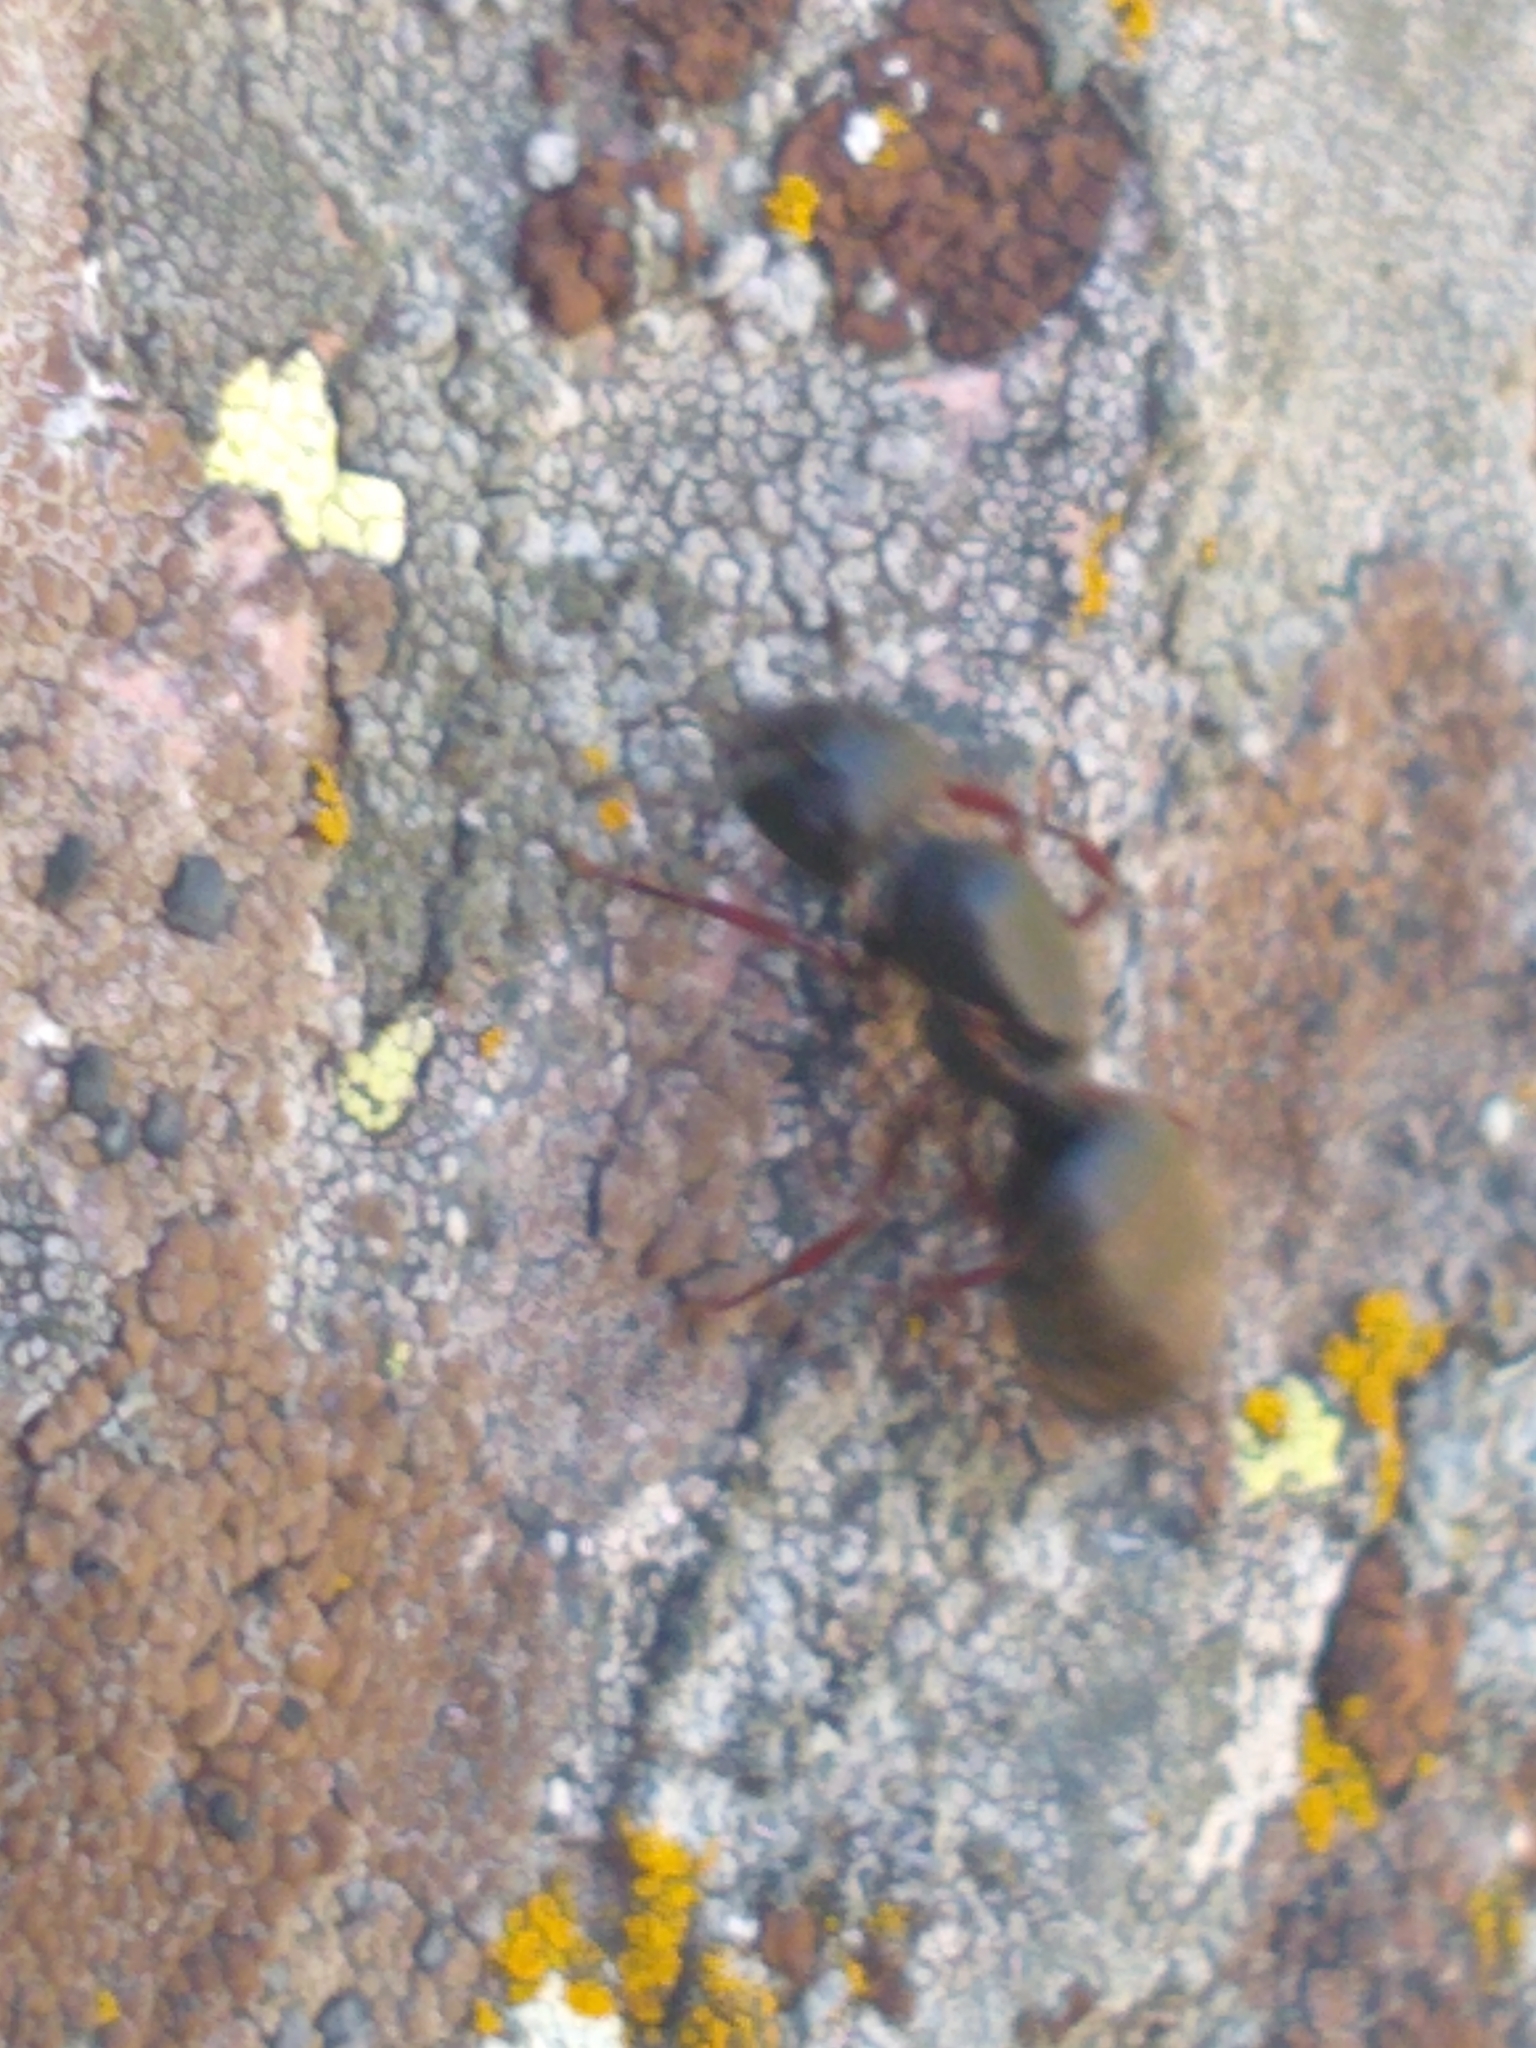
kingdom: Animalia
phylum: Arthropoda
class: Insecta
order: Hymenoptera
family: Formicidae
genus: Camponotus
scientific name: Camponotus modoc
